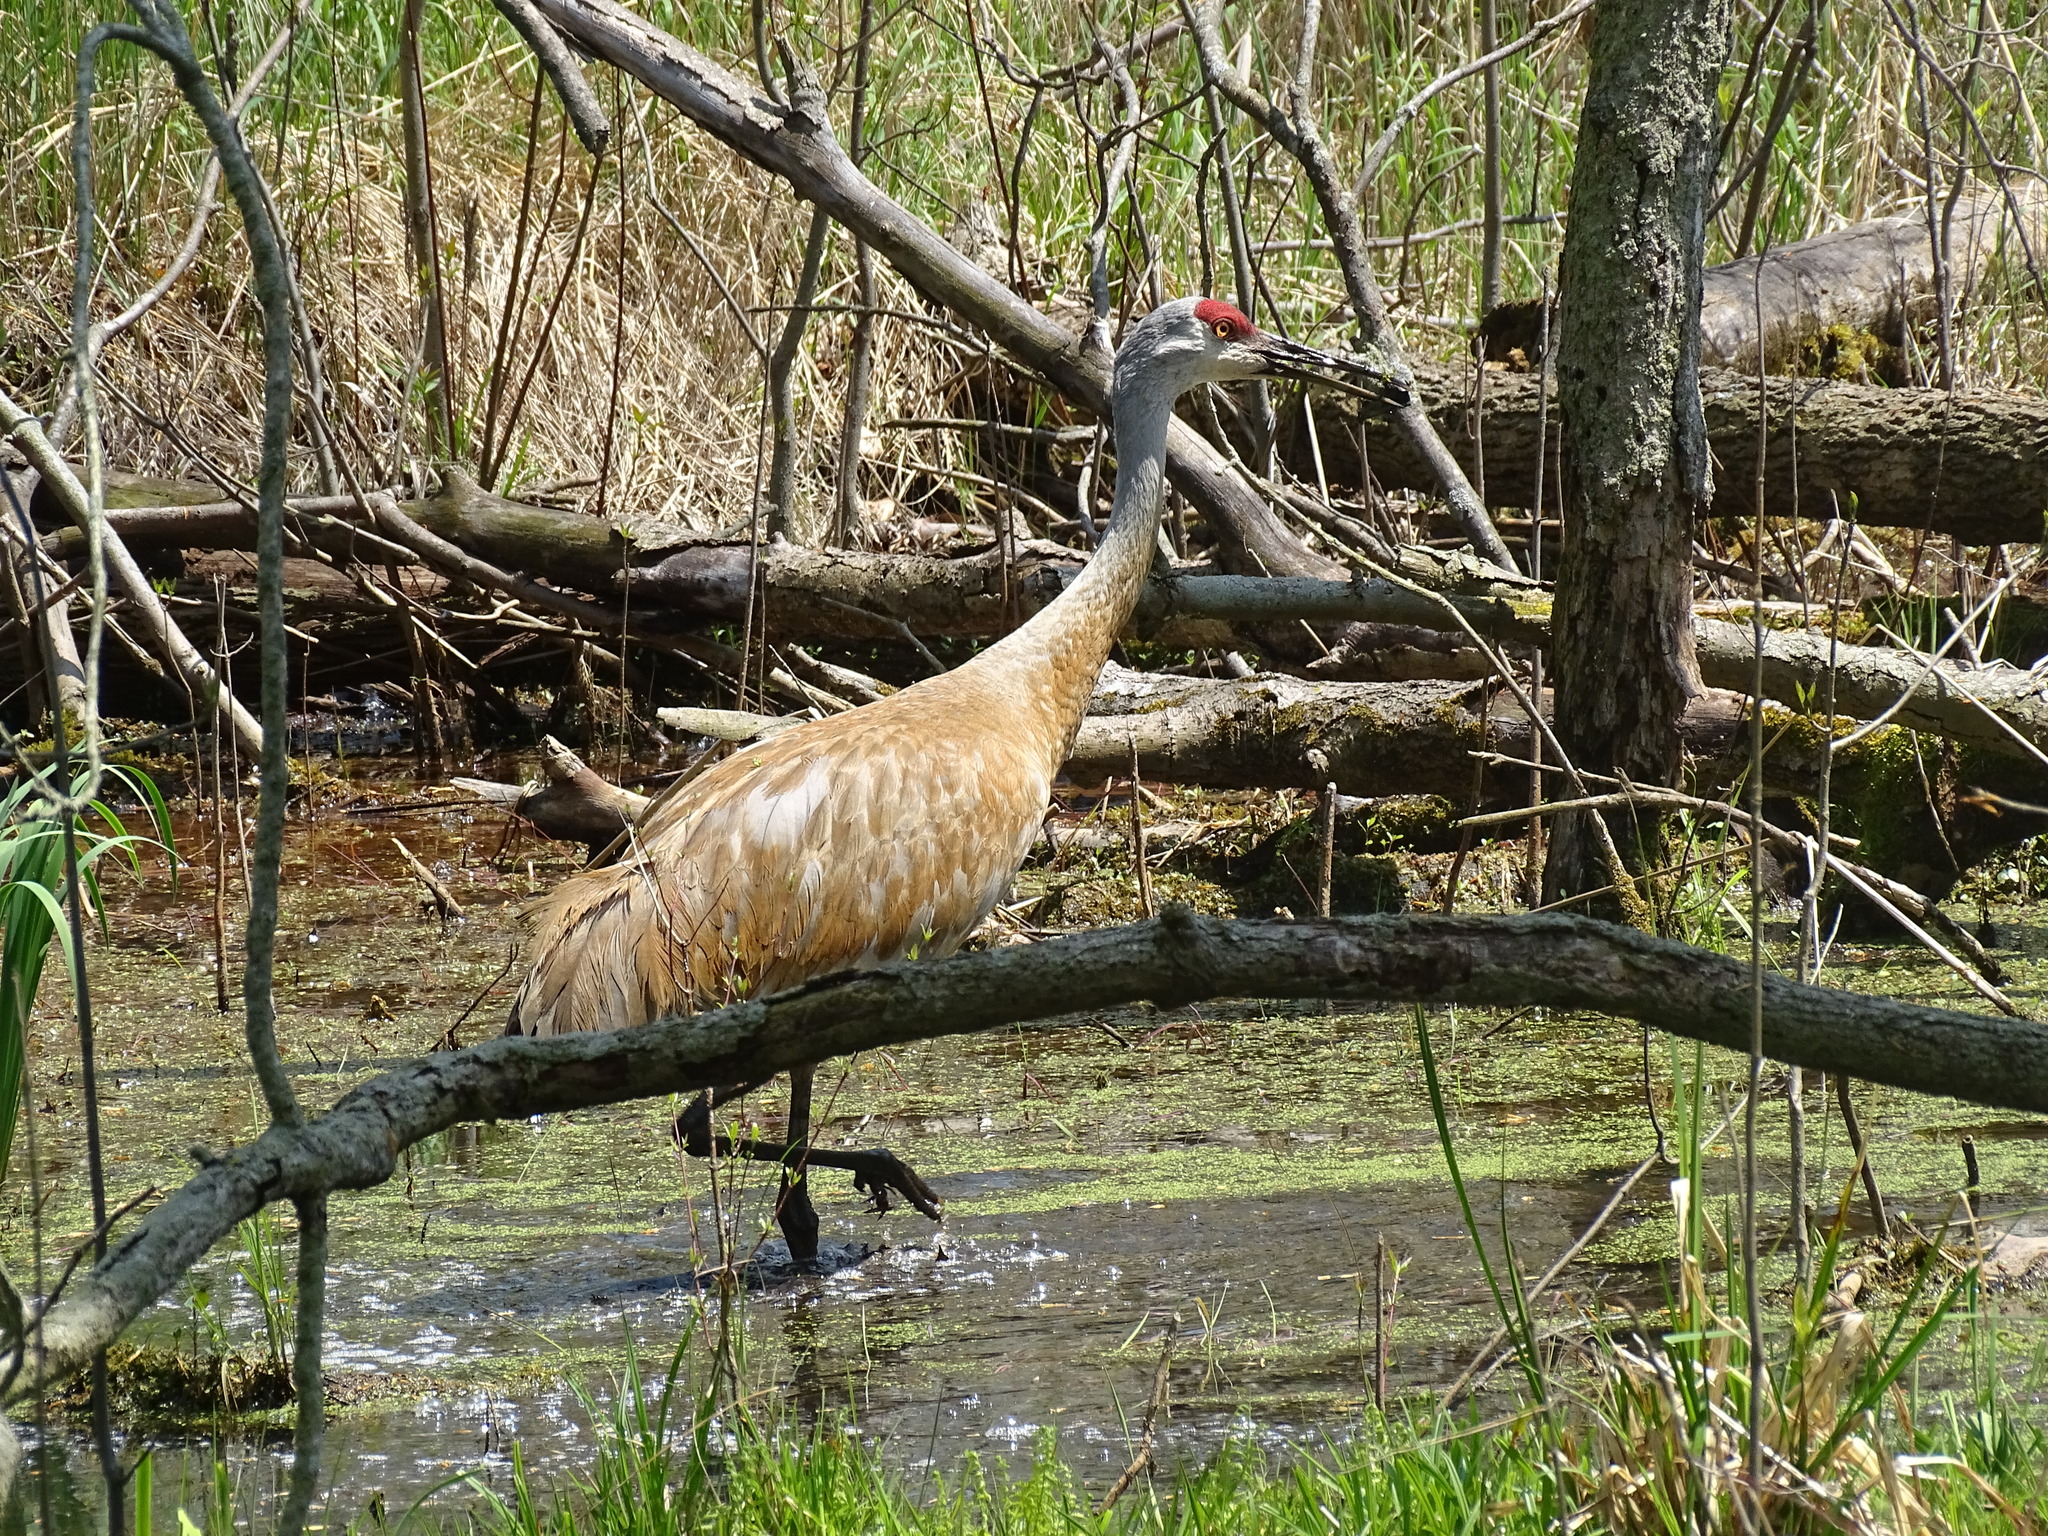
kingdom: Animalia
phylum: Chordata
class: Aves
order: Gruiformes
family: Gruidae
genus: Grus
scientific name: Grus canadensis
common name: Sandhill crane
